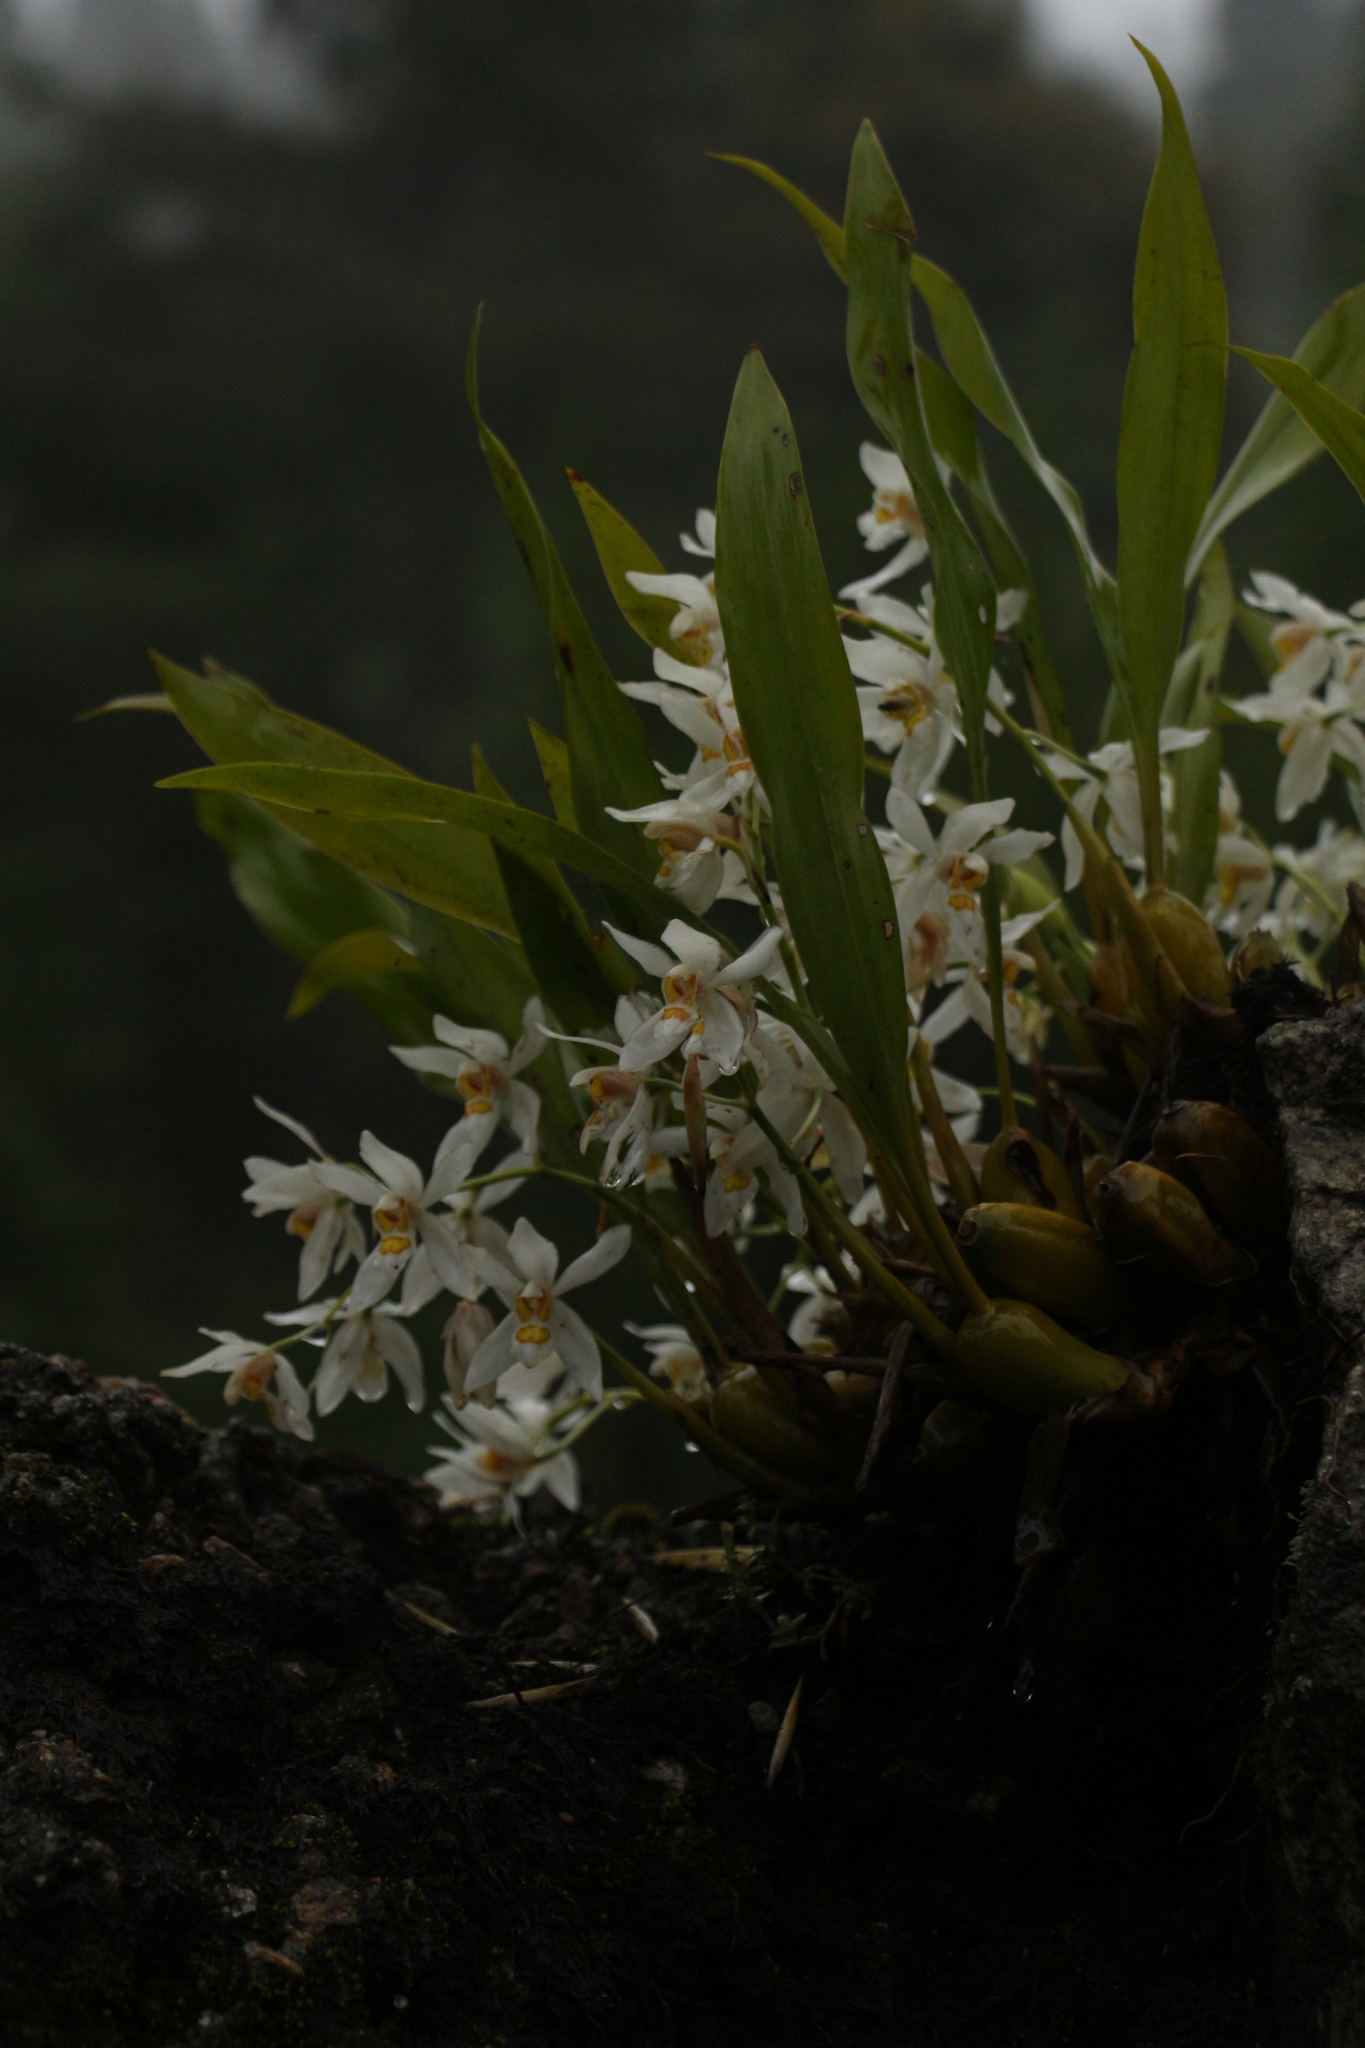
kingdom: Plantae
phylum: Tracheophyta
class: Liliopsida
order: Asparagales
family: Orchidaceae
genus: Coelogyne
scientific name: Coelogyne nitida
